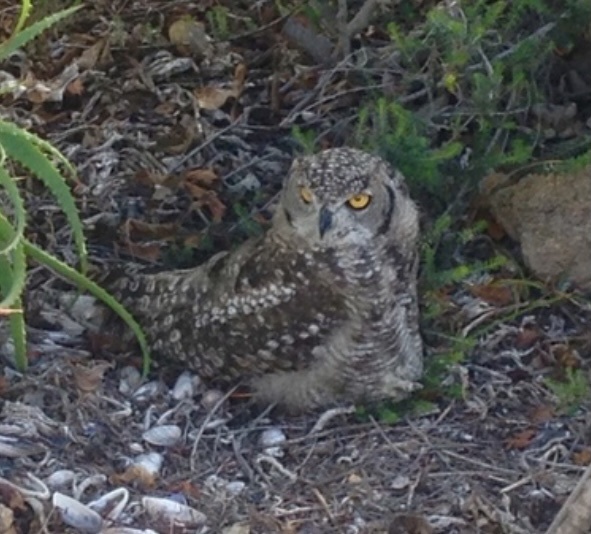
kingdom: Animalia
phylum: Chordata
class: Aves
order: Strigiformes
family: Strigidae
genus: Bubo
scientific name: Bubo africanus
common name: Spotted eagle-owl
